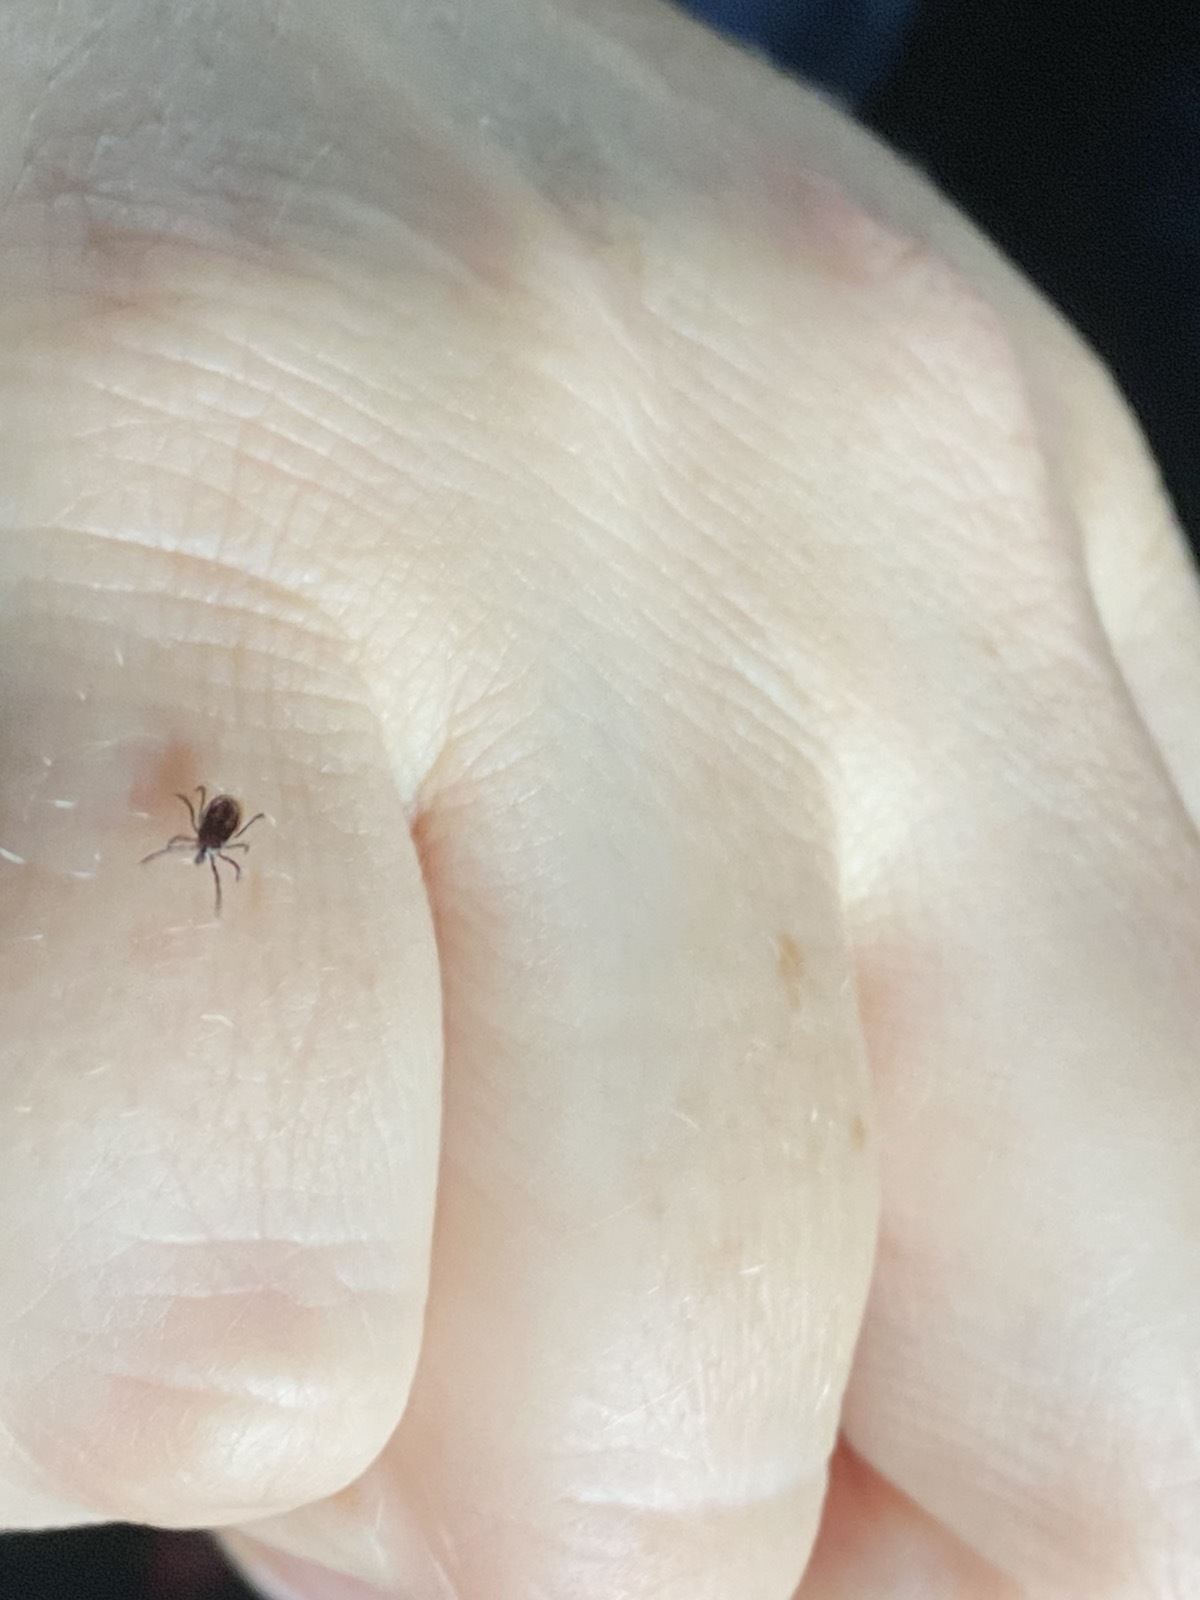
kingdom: Animalia
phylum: Arthropoda
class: Arachnida
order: Ixodida
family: Ixodidae
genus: Ixodes
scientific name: Ixodes persulcatus
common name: Taiga tick
